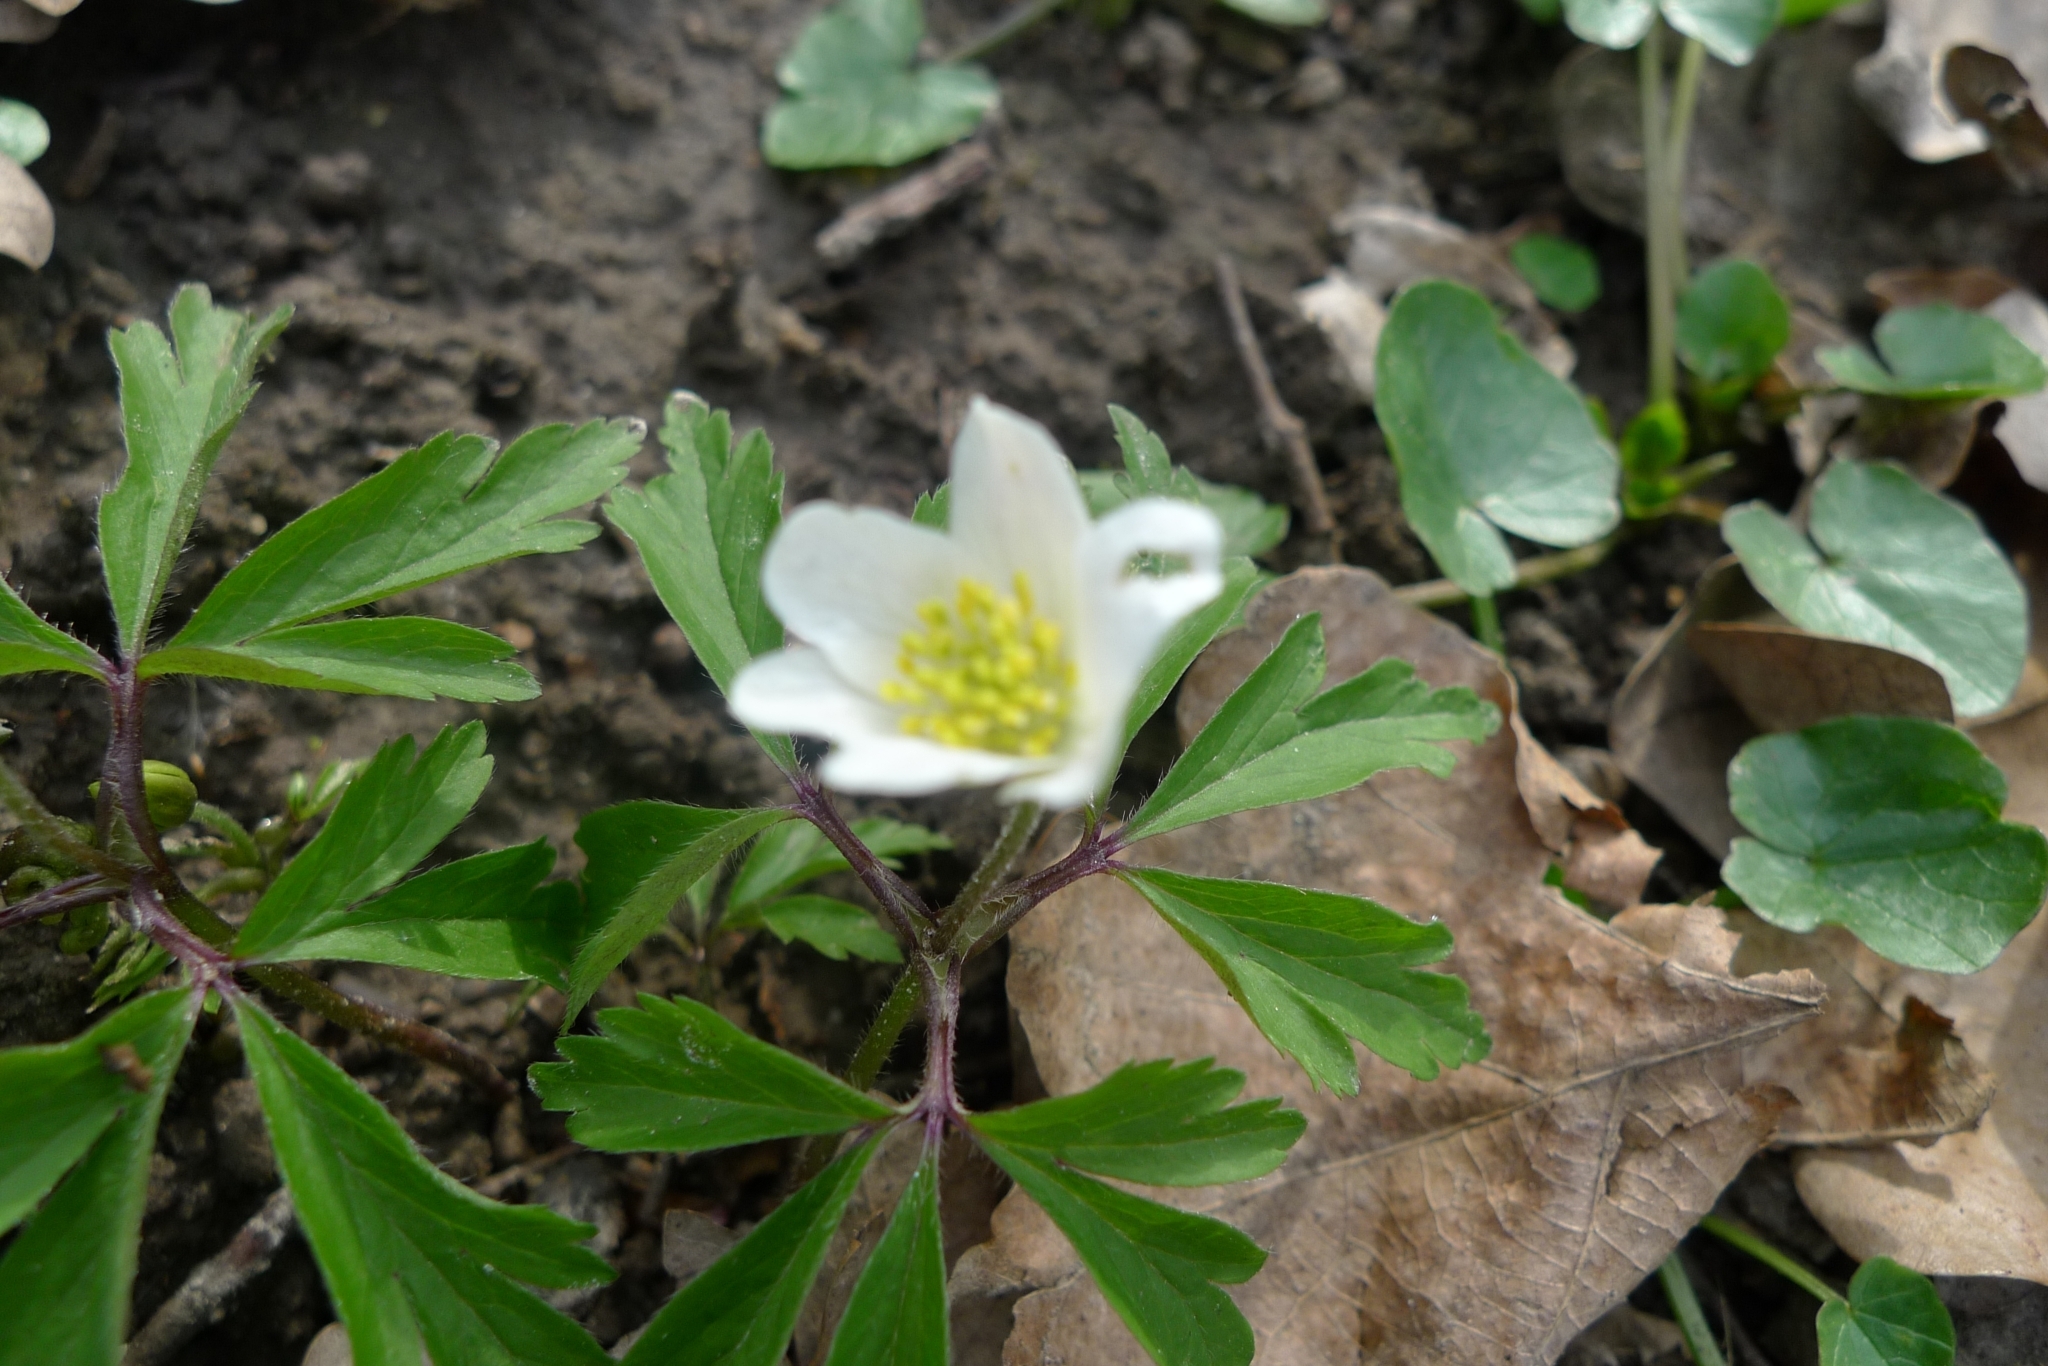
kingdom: Plantae
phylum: Tracheophyta
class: Magnoliopsida
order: Ranunculales
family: Ranunculaceae
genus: Anemone
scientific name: Anemone nemorosa
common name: Wood anemone
